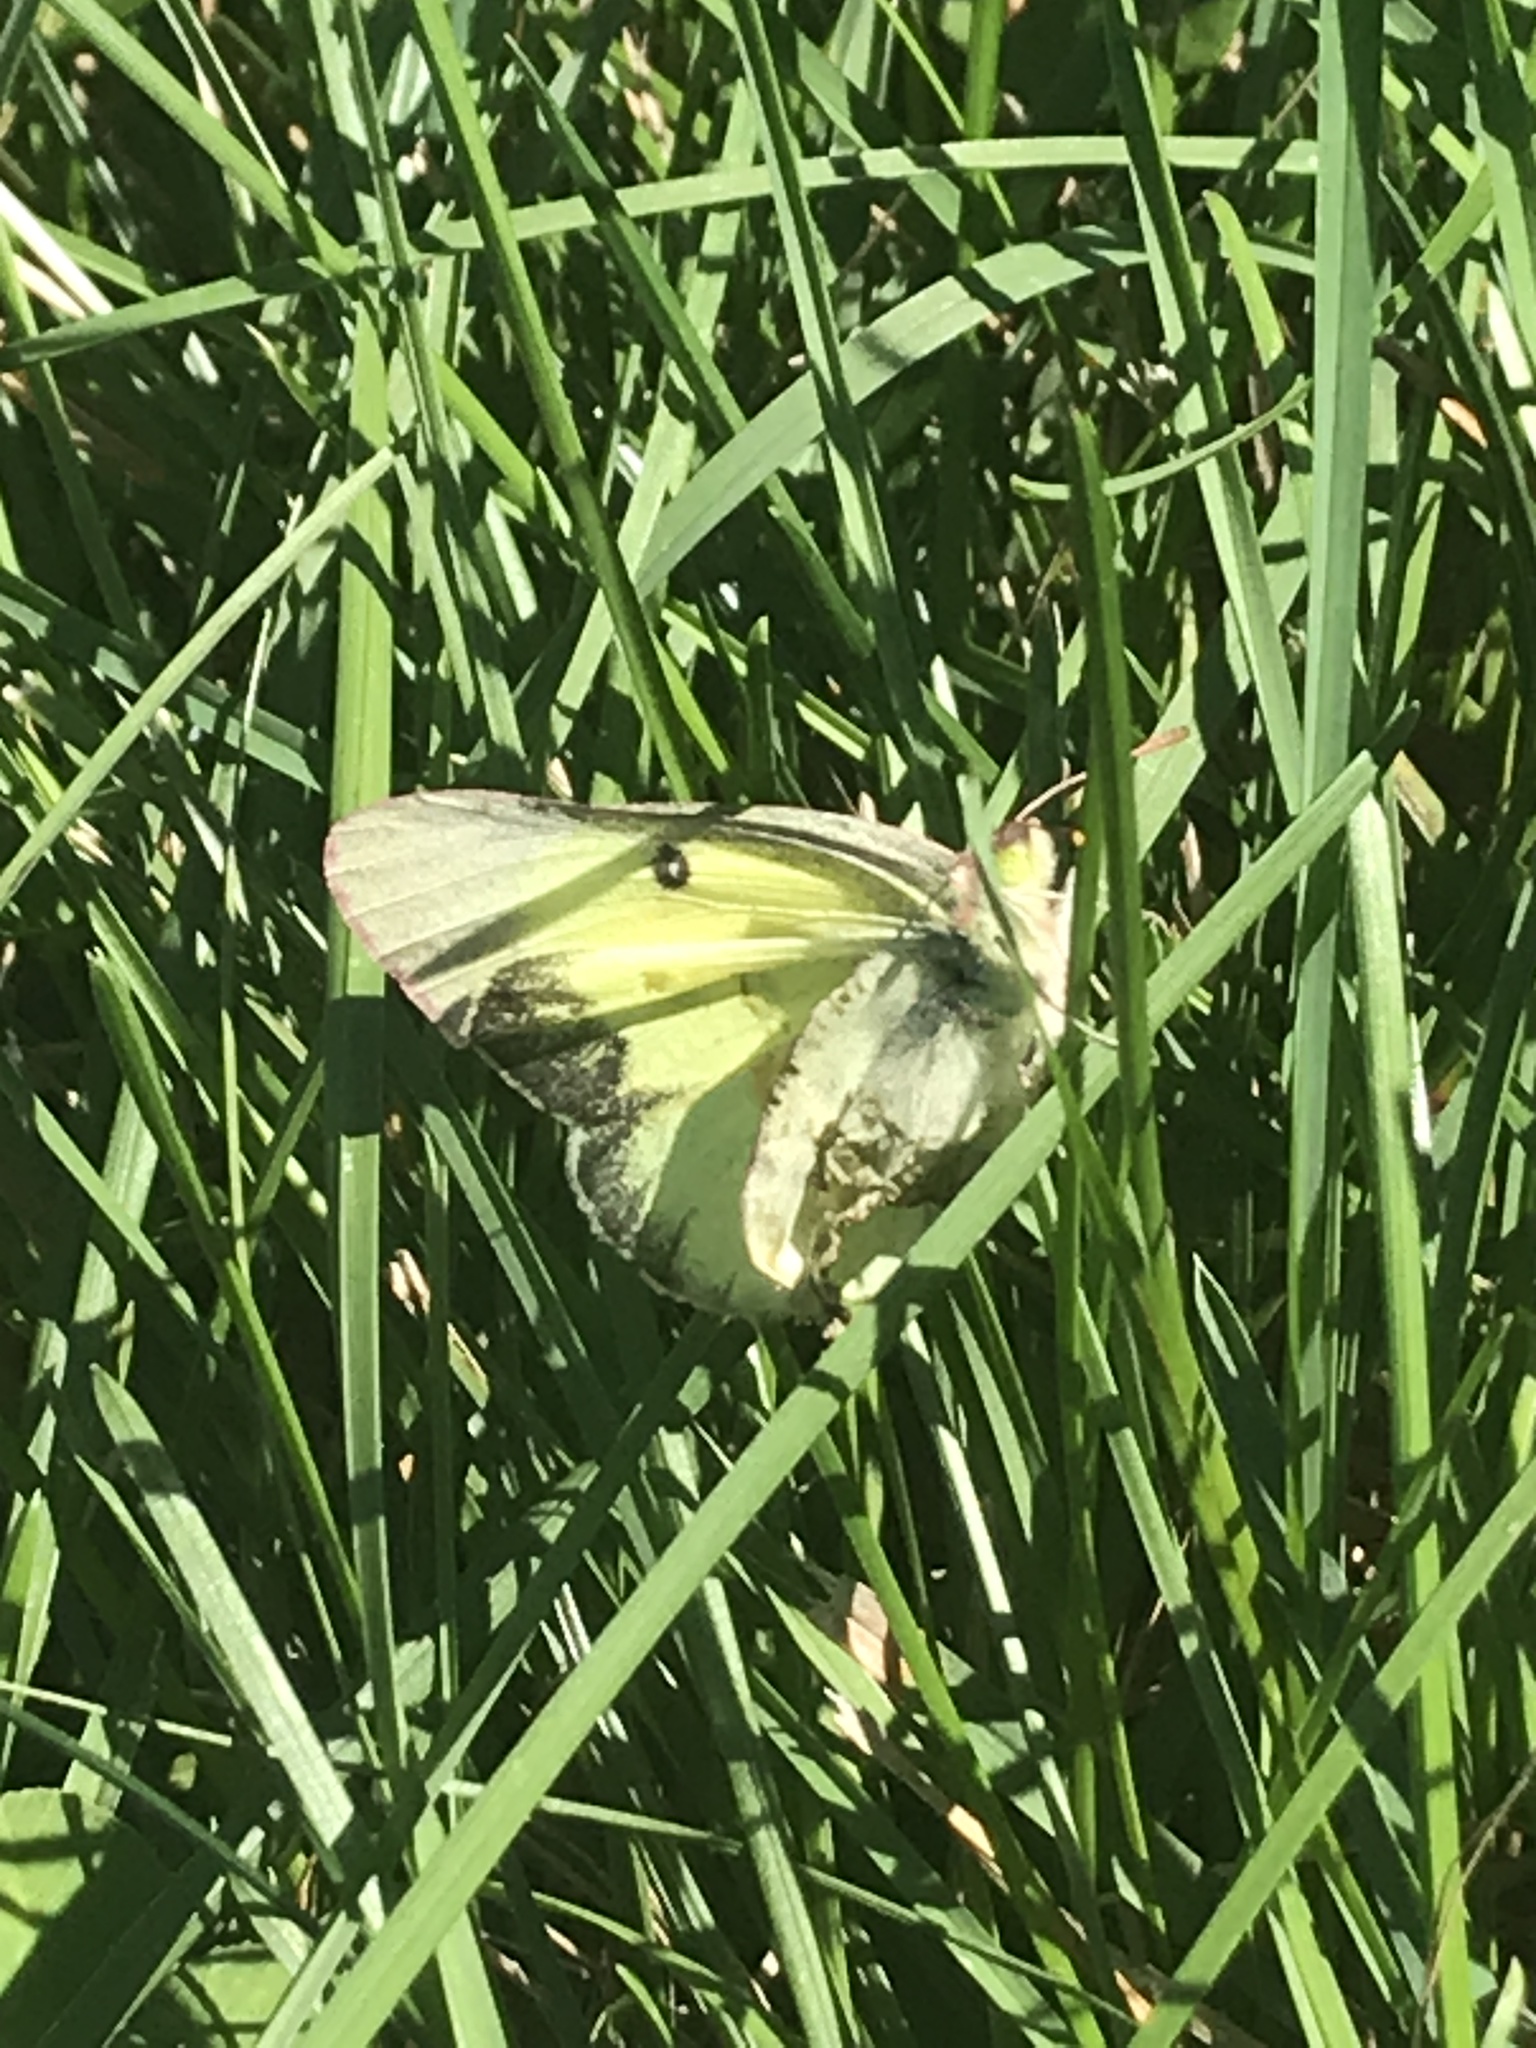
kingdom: Animalia
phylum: Arthropoda
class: Insecta
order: Lepidoptera
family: Pieridae
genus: Colias
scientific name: Colias philodice
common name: Clouded sulphur
